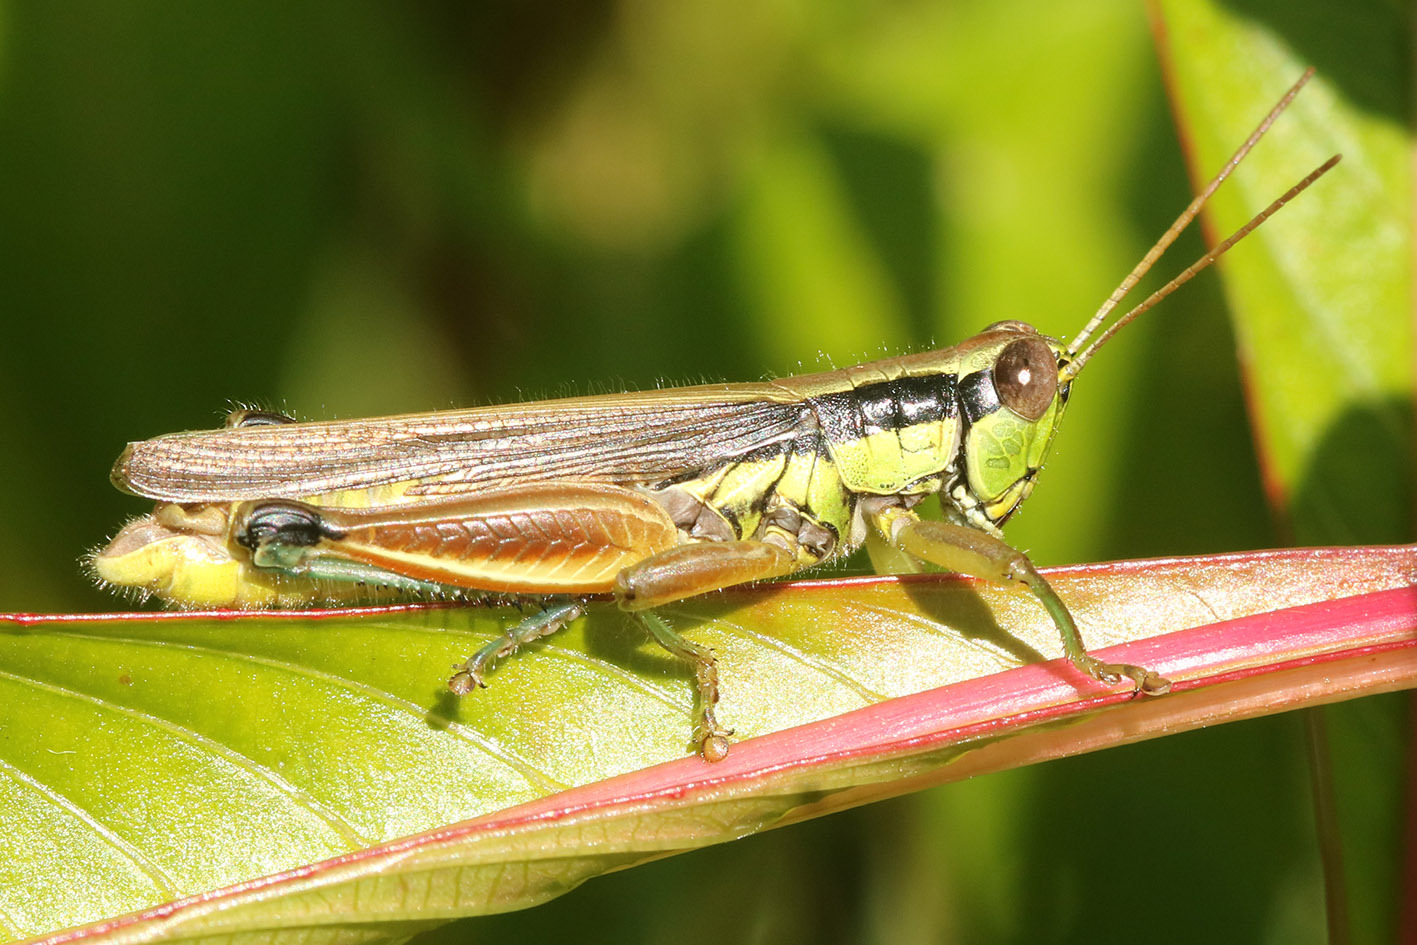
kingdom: Animalia
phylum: Arthropoda
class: Insecta
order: Orthoptera
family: Acrididae
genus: Scotussa
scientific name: Scotussa impudica
